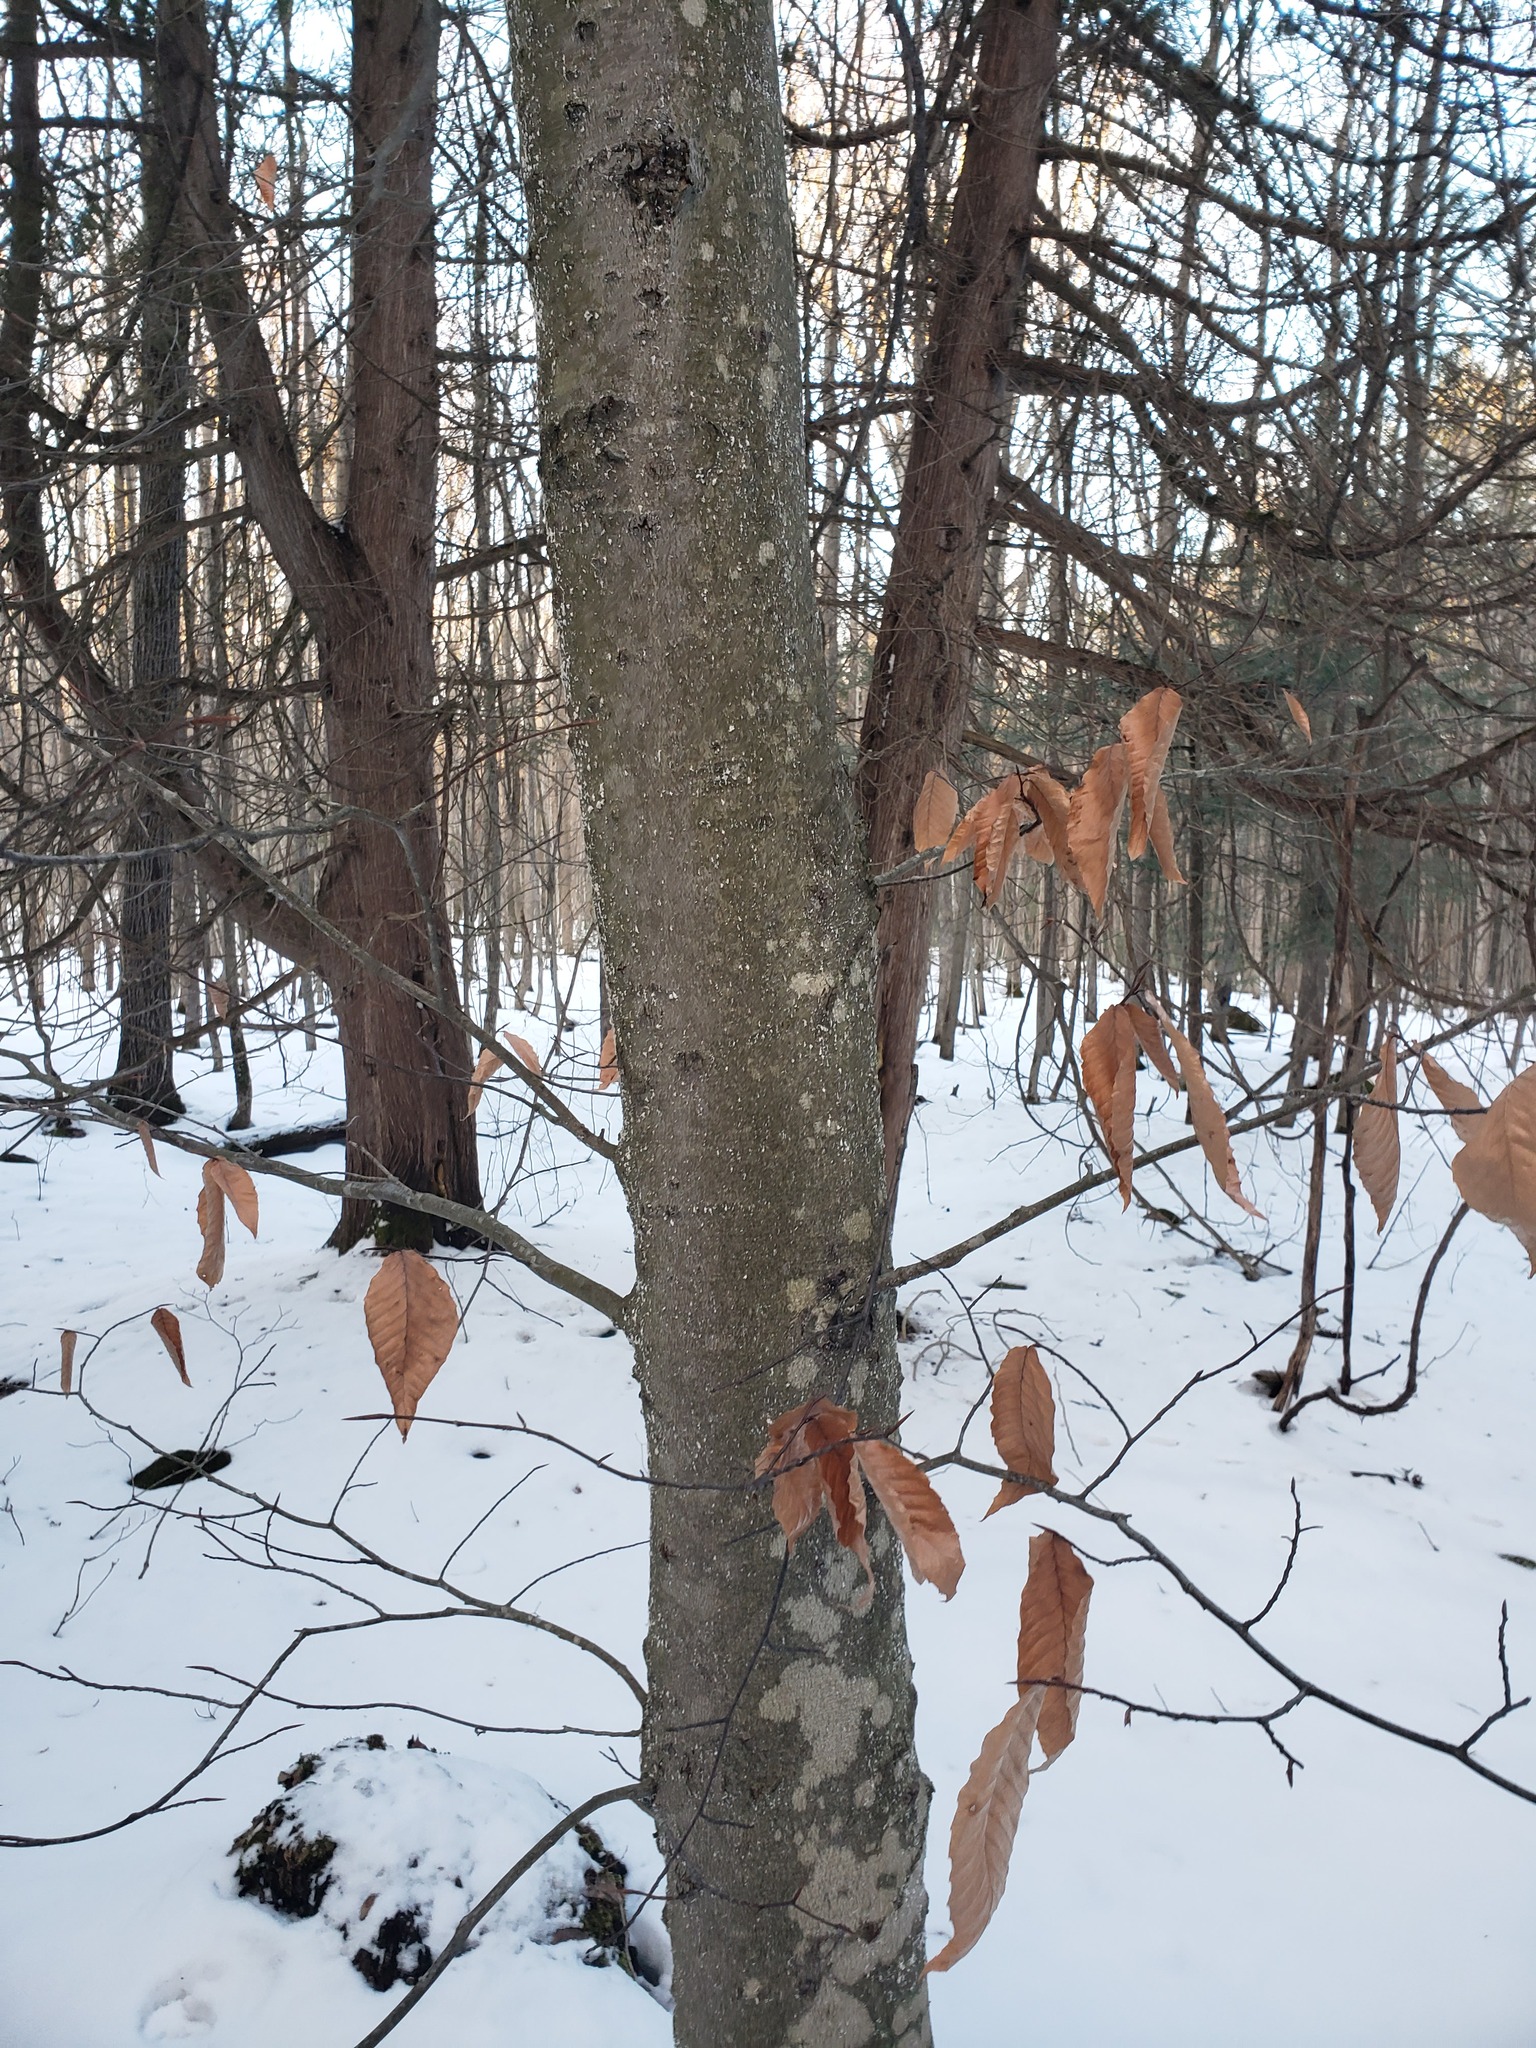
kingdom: Plantae
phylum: Tracheophyta
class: Magnoliopsida
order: Fagales
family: Fagaceae
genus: Fagus
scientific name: Fagus grandifolia
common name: American beech
